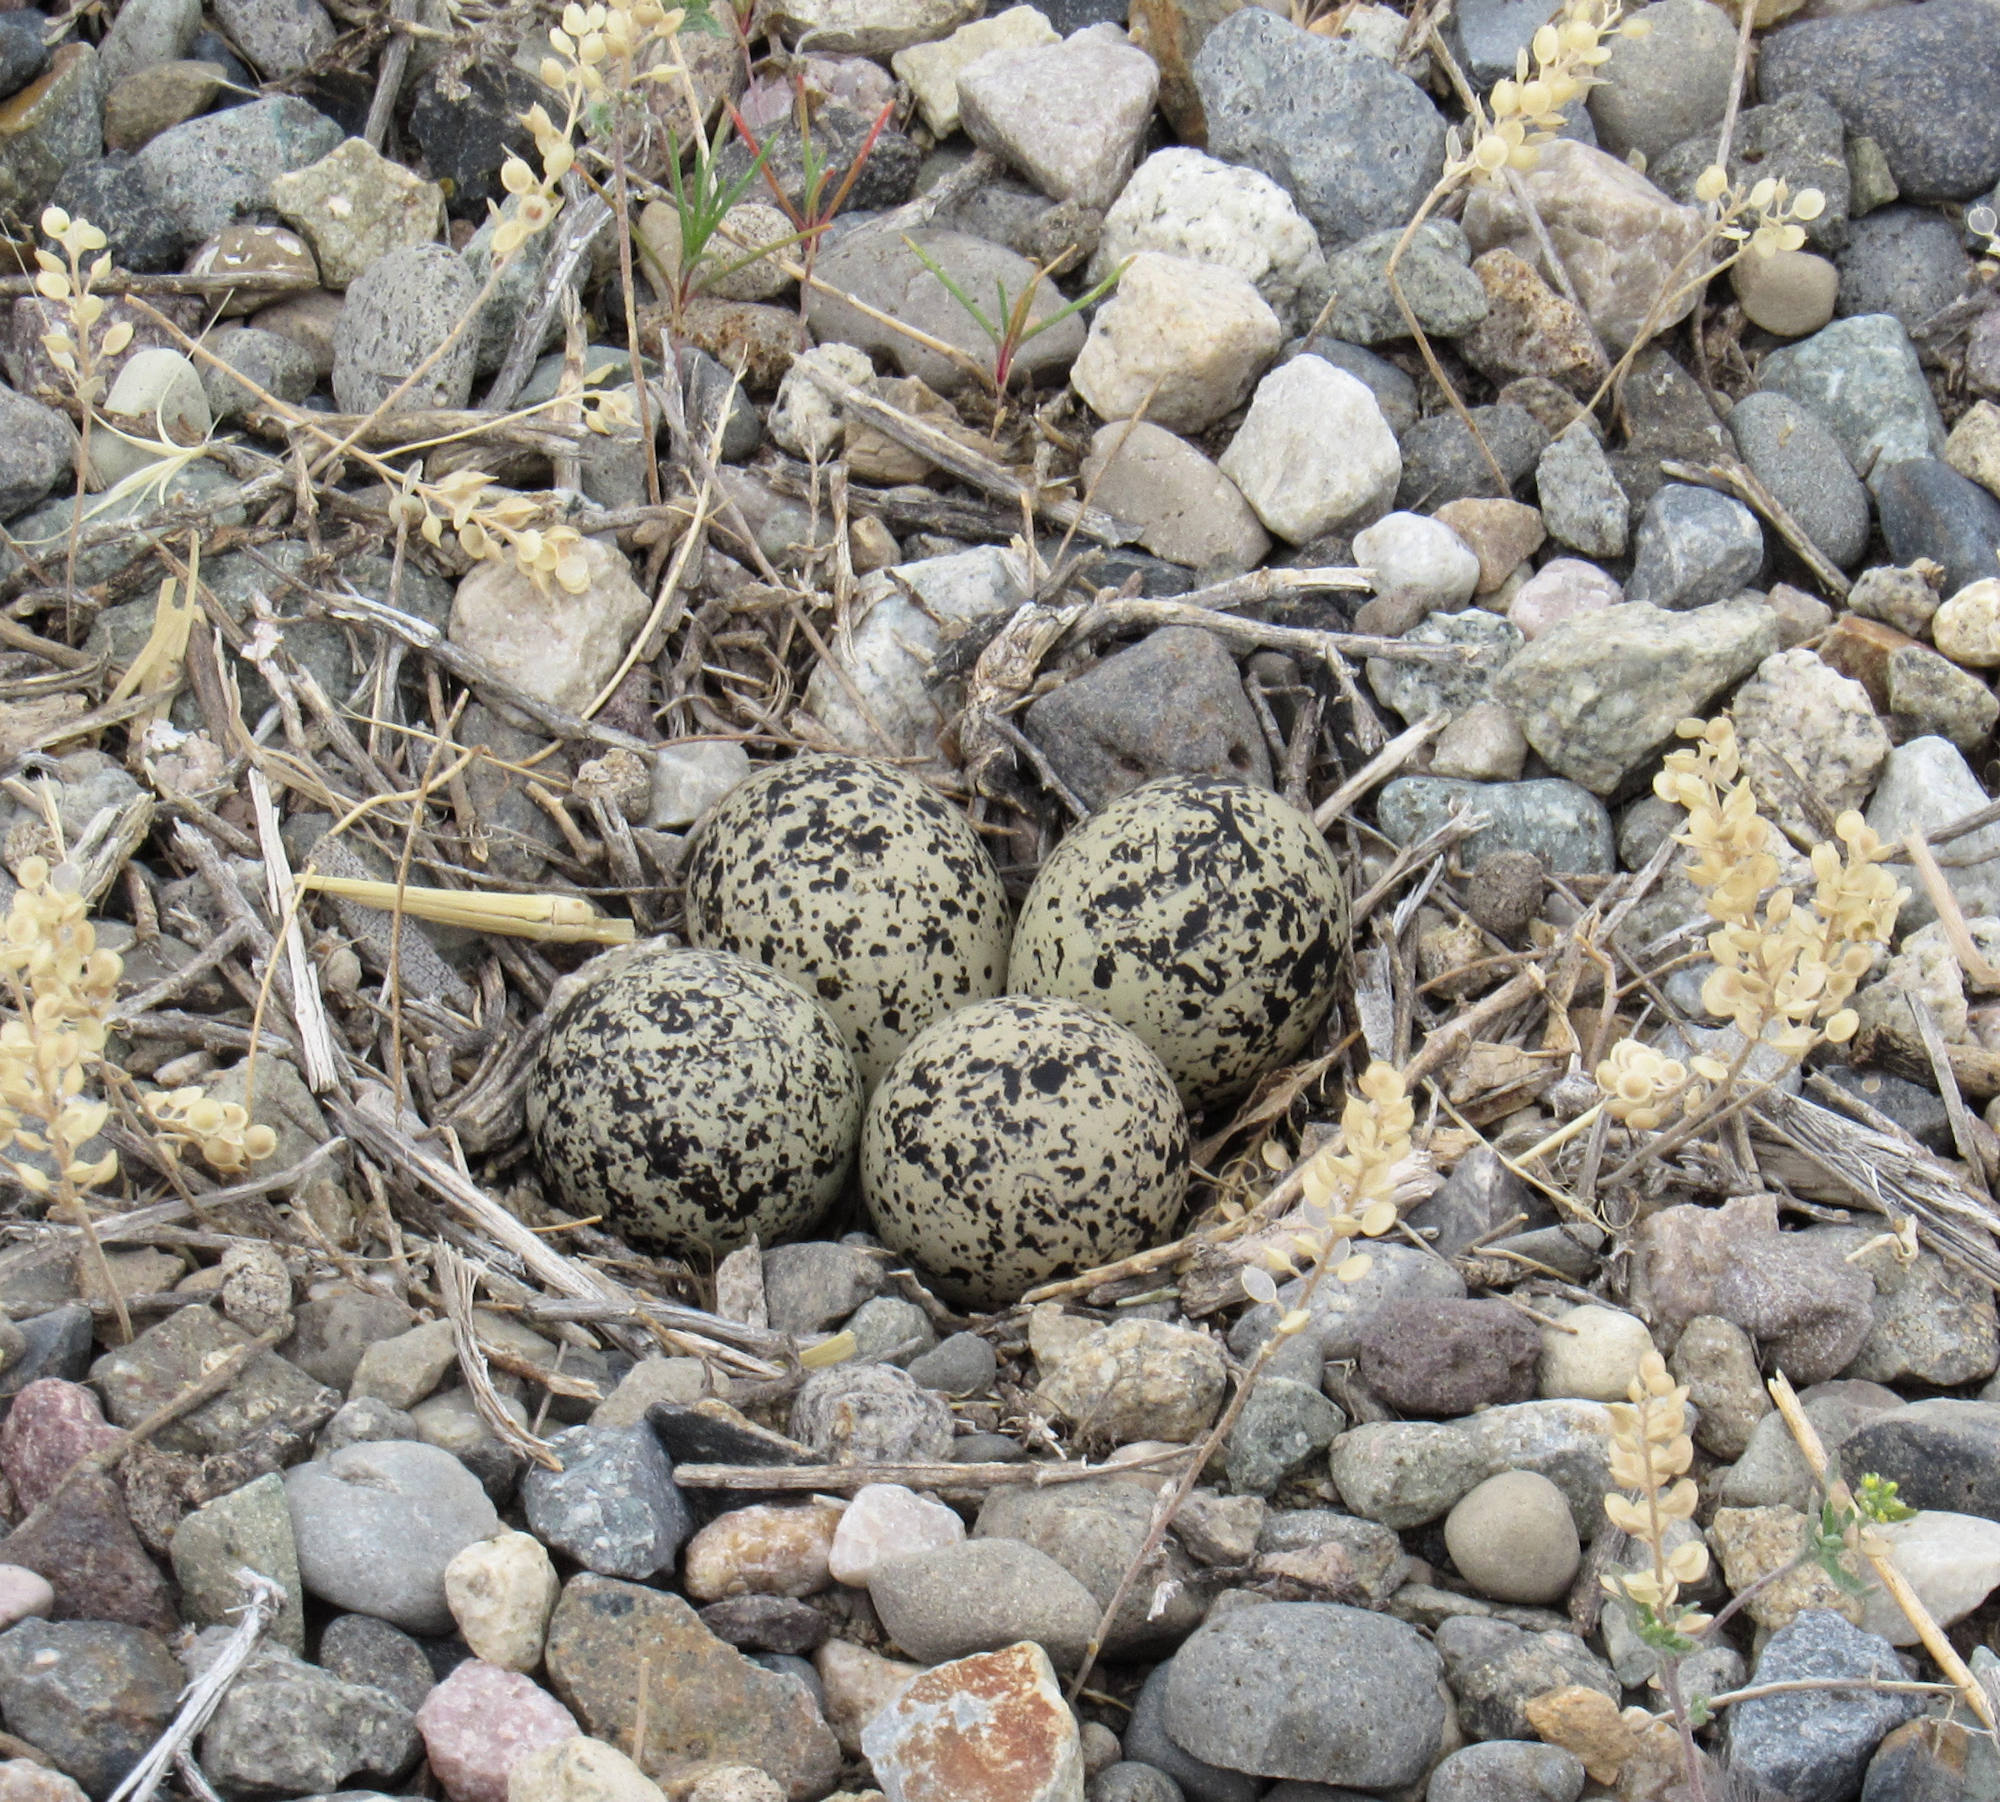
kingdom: Animalia
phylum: Chordata
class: Aves
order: Charadriiformes
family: Charadriidae
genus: Charadrius
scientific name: Charadrius vociferus
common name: Killdeer
